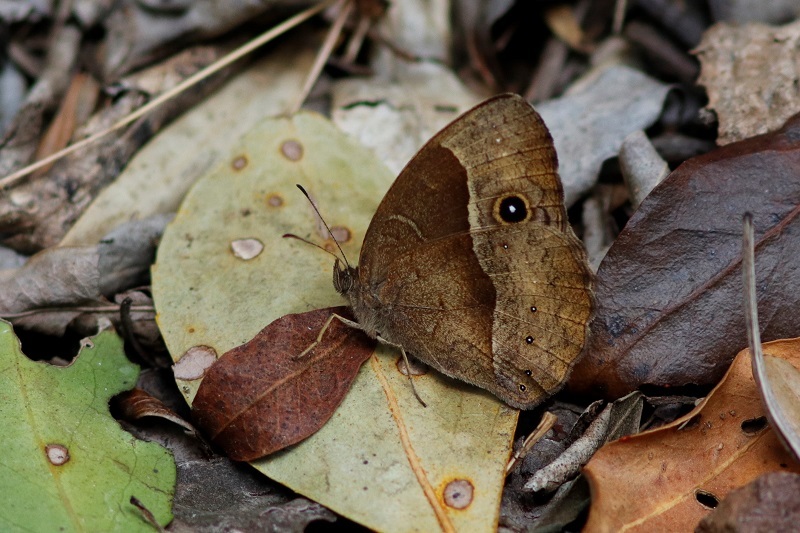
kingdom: Animalia
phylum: Arthropoda
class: Insecta
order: Lepidoptera
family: Nymphalidae
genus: Mycalesis
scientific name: Mycalesis rhacotis
